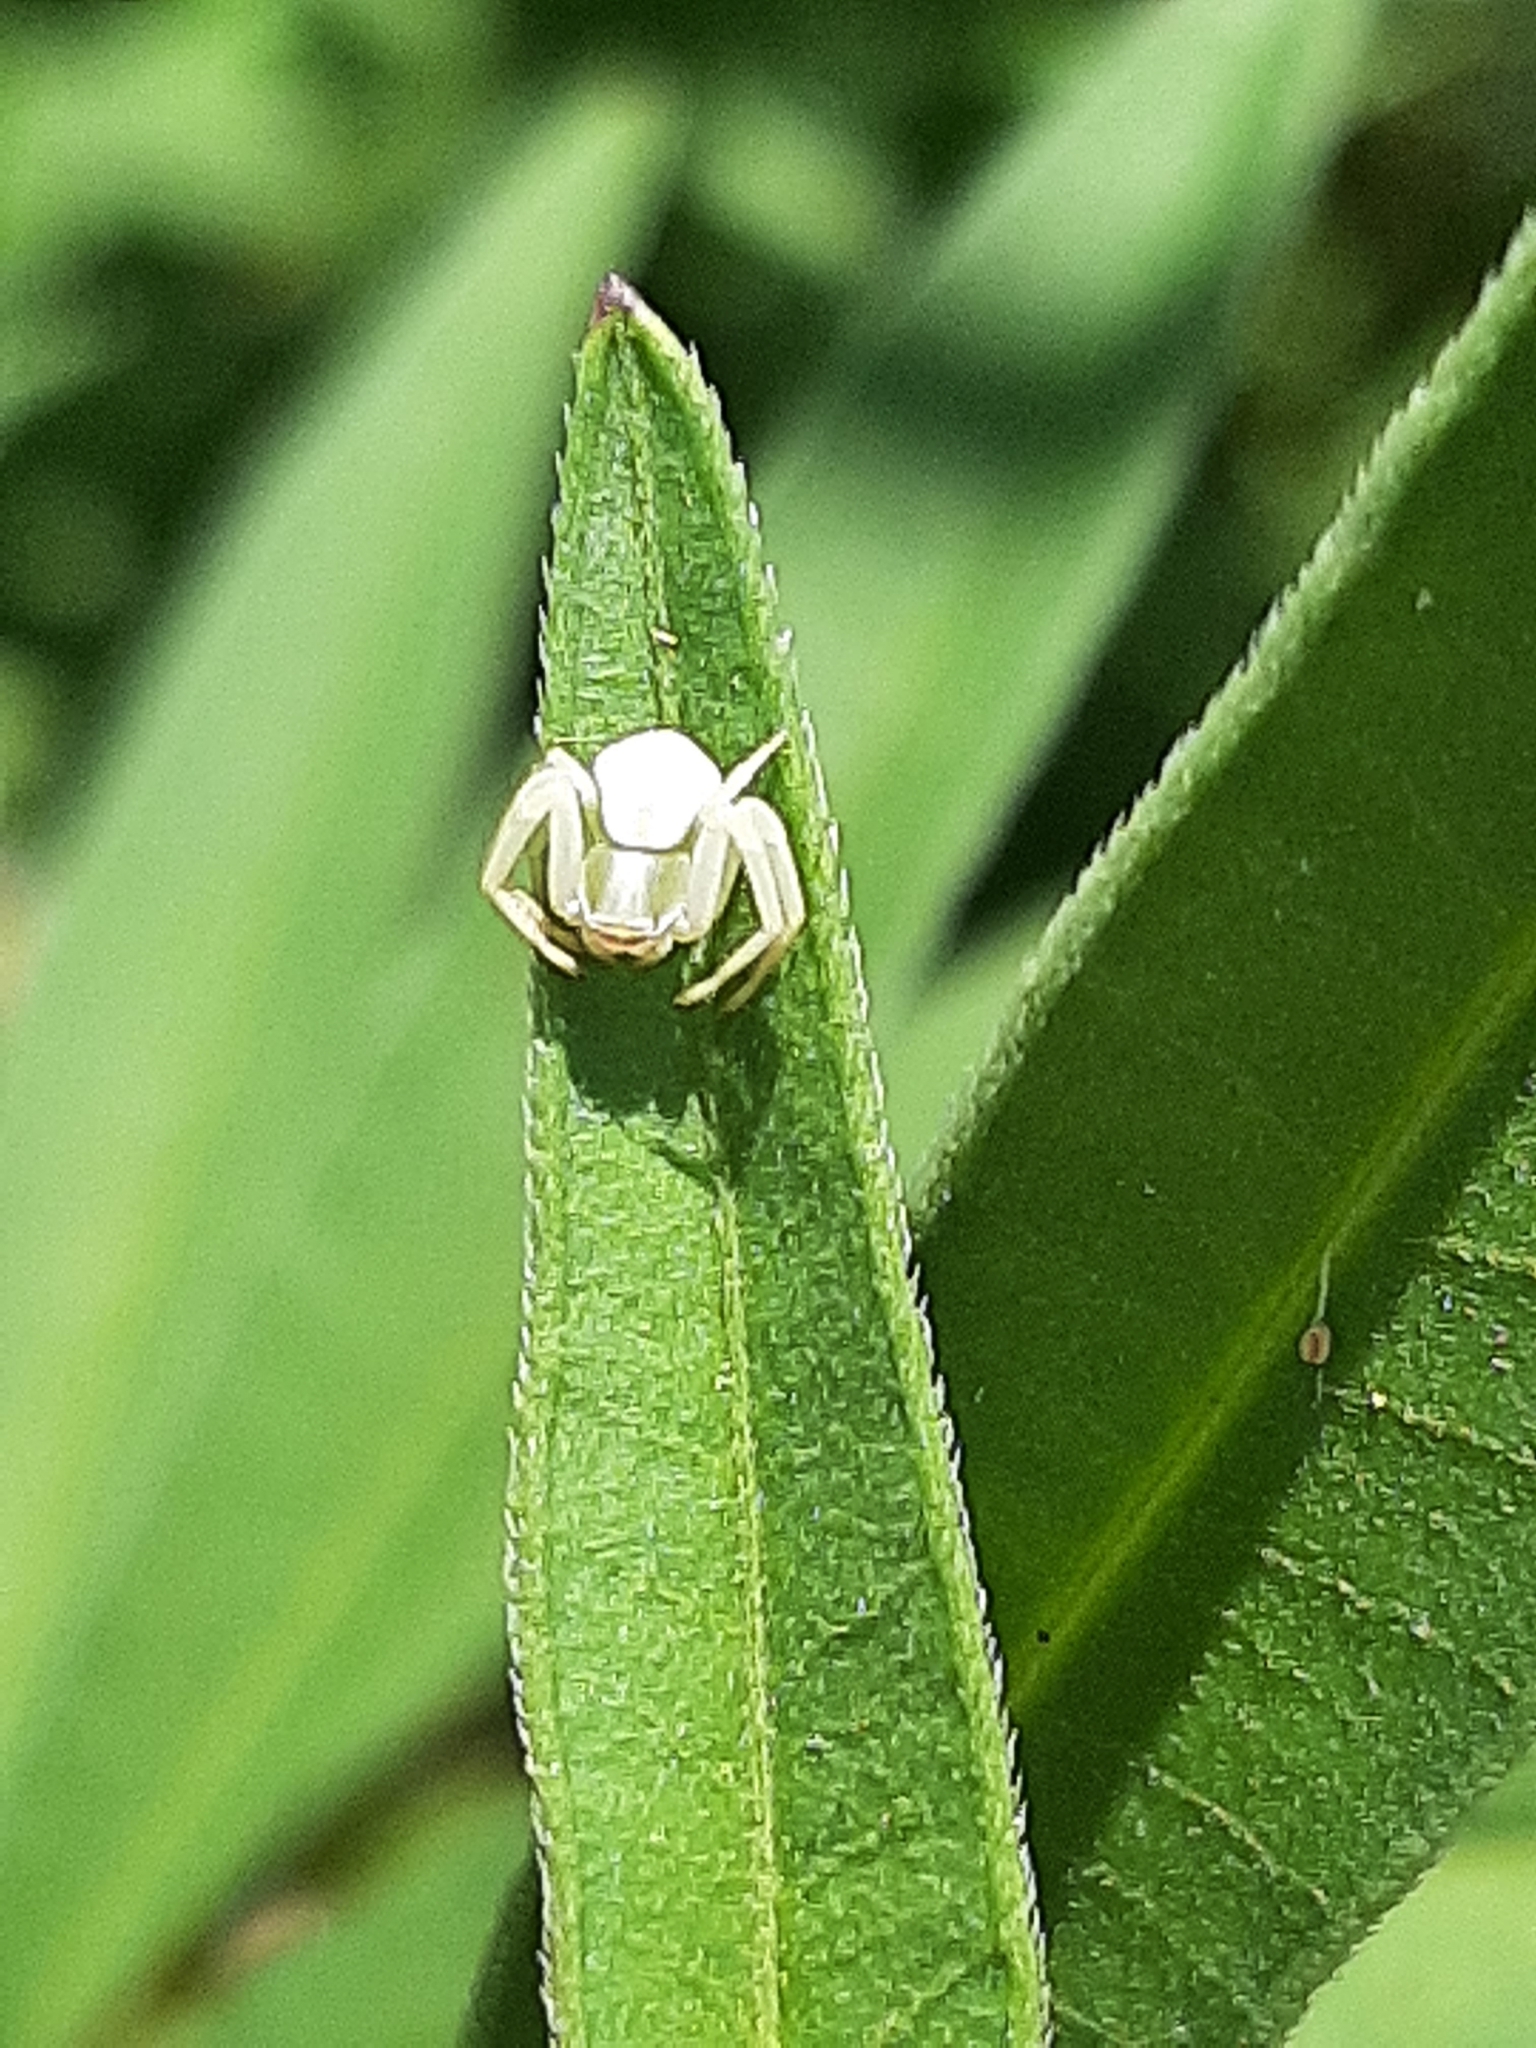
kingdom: Animalia
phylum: Arthropoda
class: Arachnida
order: Araneae
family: Thomisidae
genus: Misumenoides
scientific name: Misumenoides formosipes
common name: White-banded crab spider
